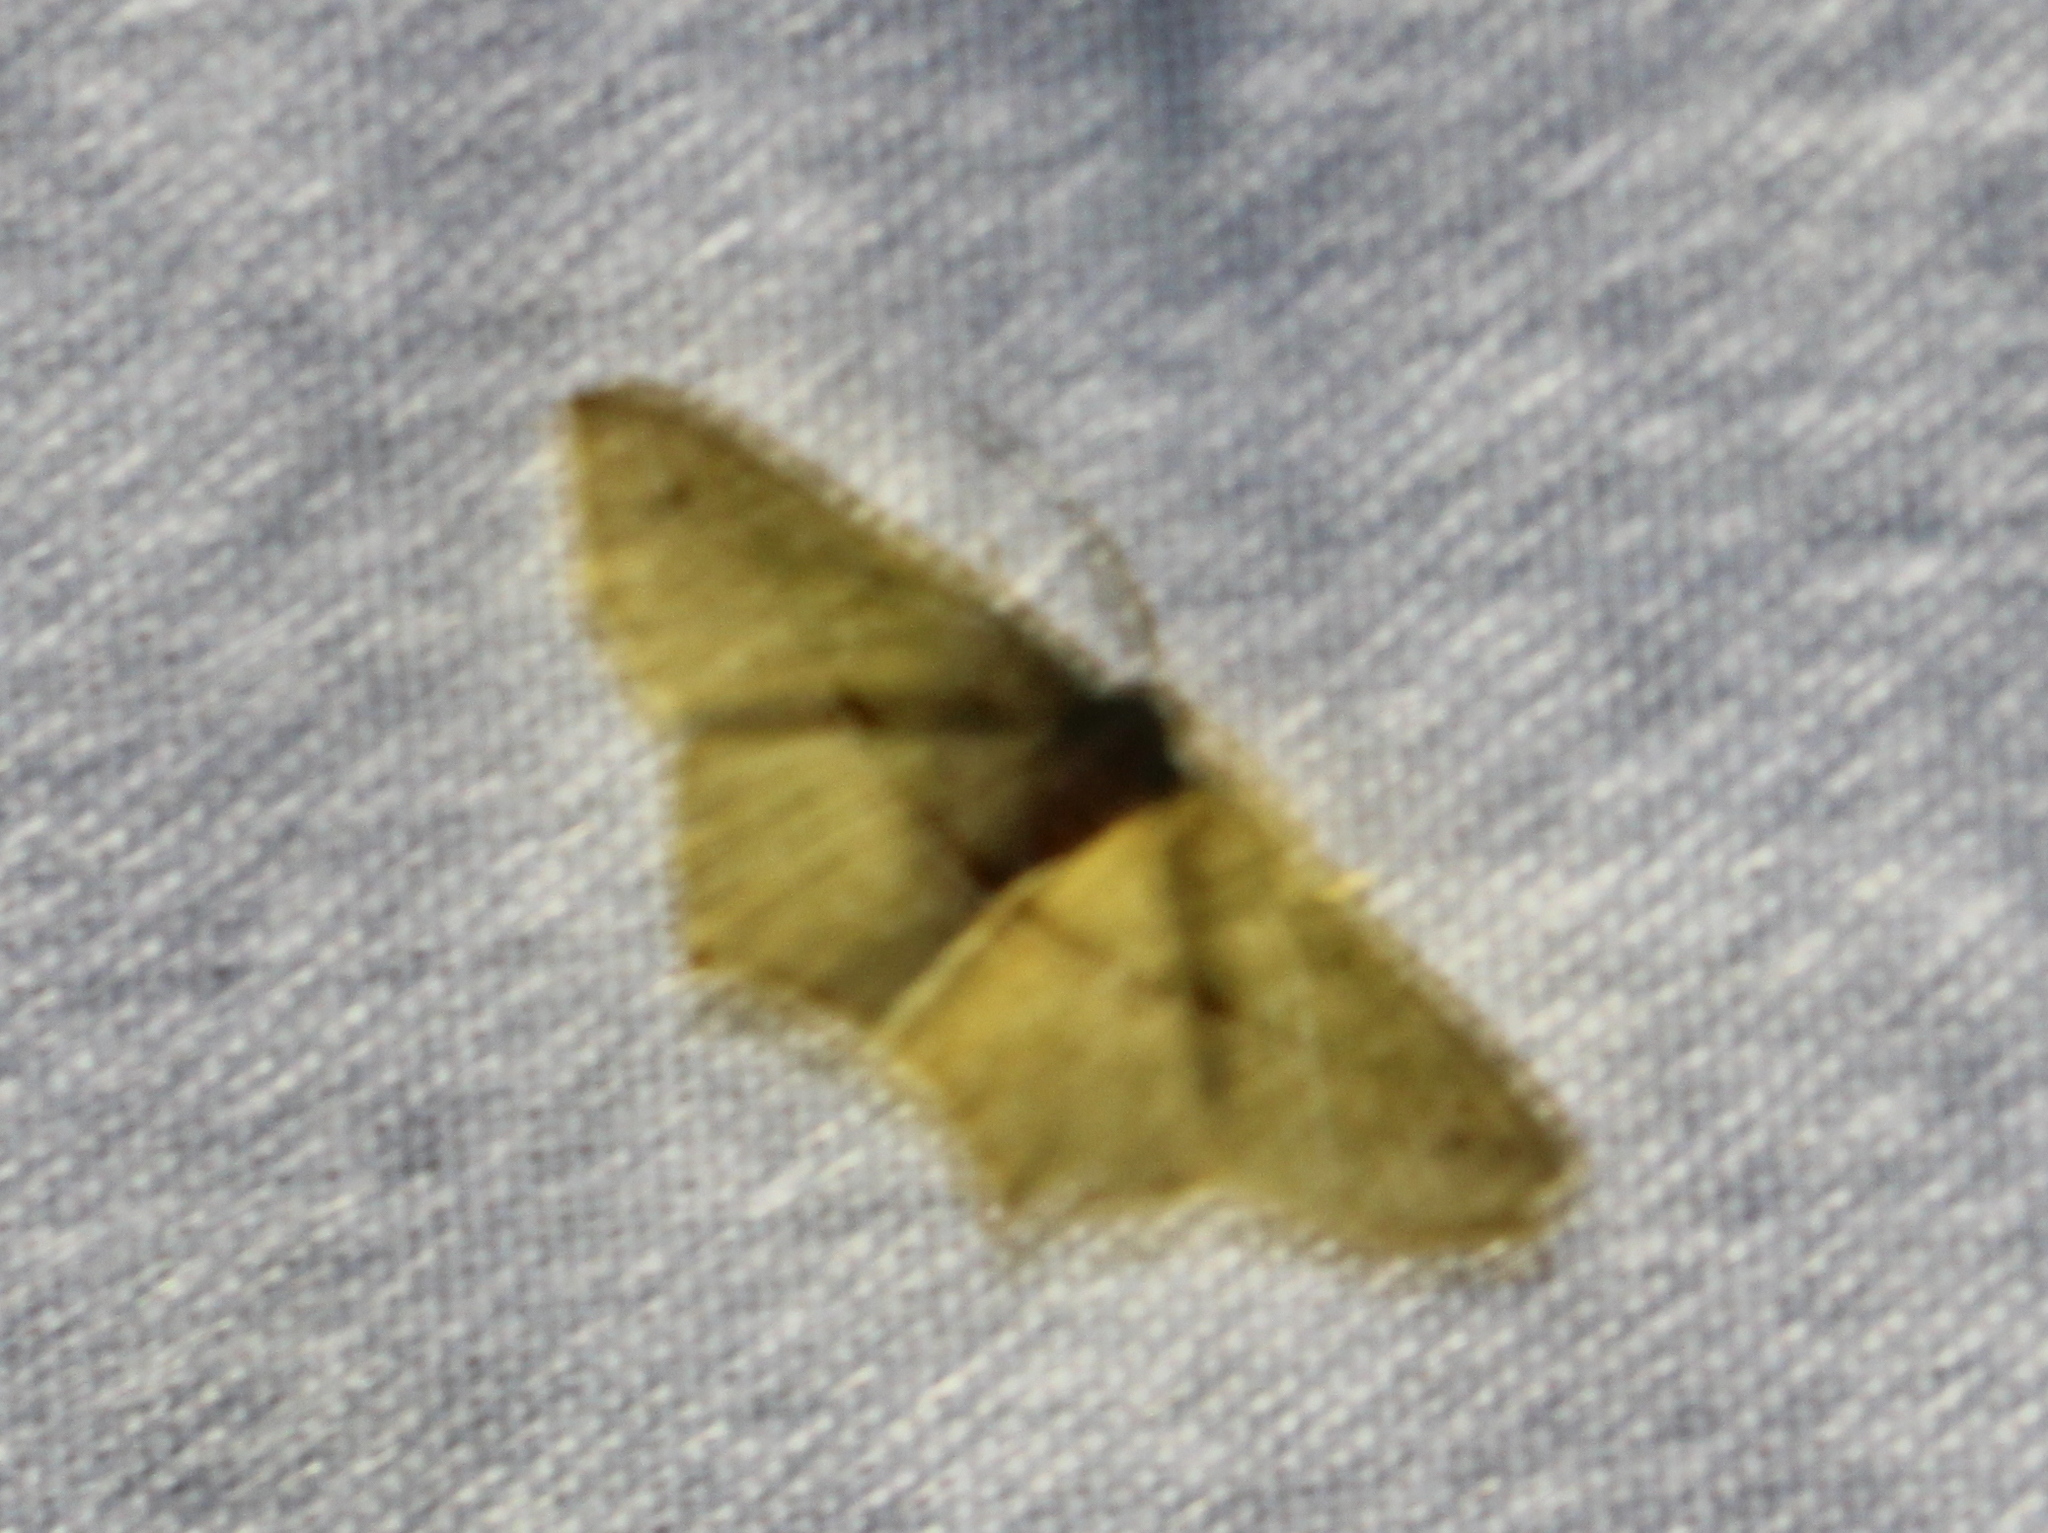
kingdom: Animalia
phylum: Arthropoda
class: Insecta
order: Lepidoptera
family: Geometridae
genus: Traminda
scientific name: Traminda mundissima
